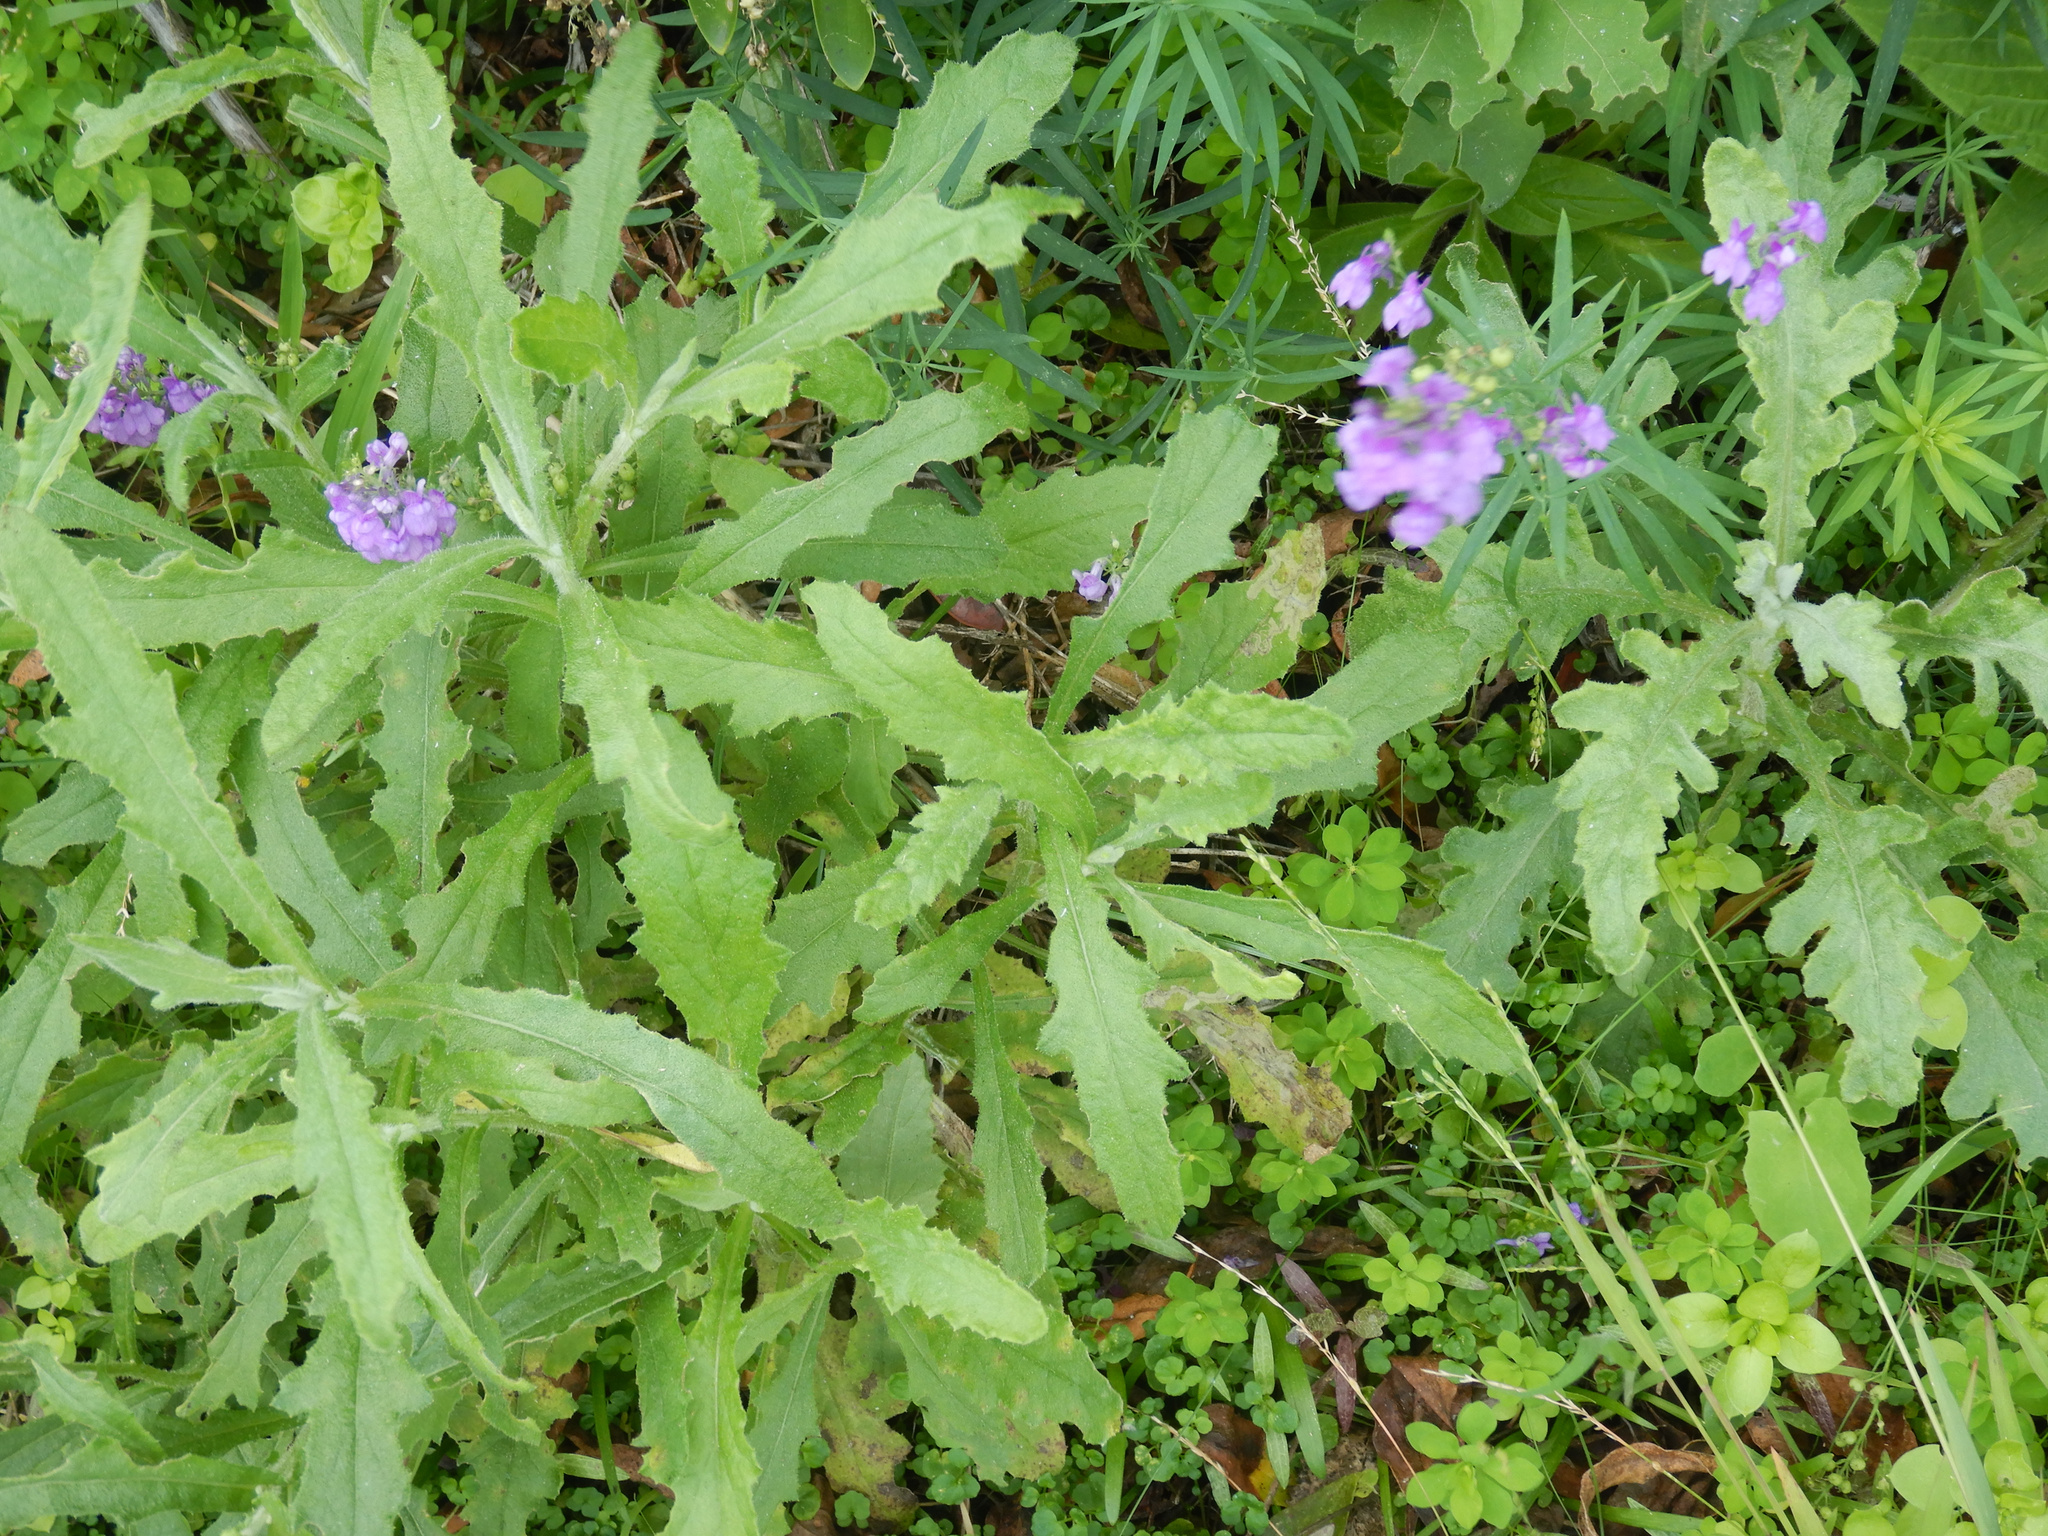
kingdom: Plantae
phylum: Tracheophyta
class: Magnoliopsida
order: Asterales
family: Asteraceae
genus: Senecio
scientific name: Senecio glomeratus
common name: Cutleaf burnweed
